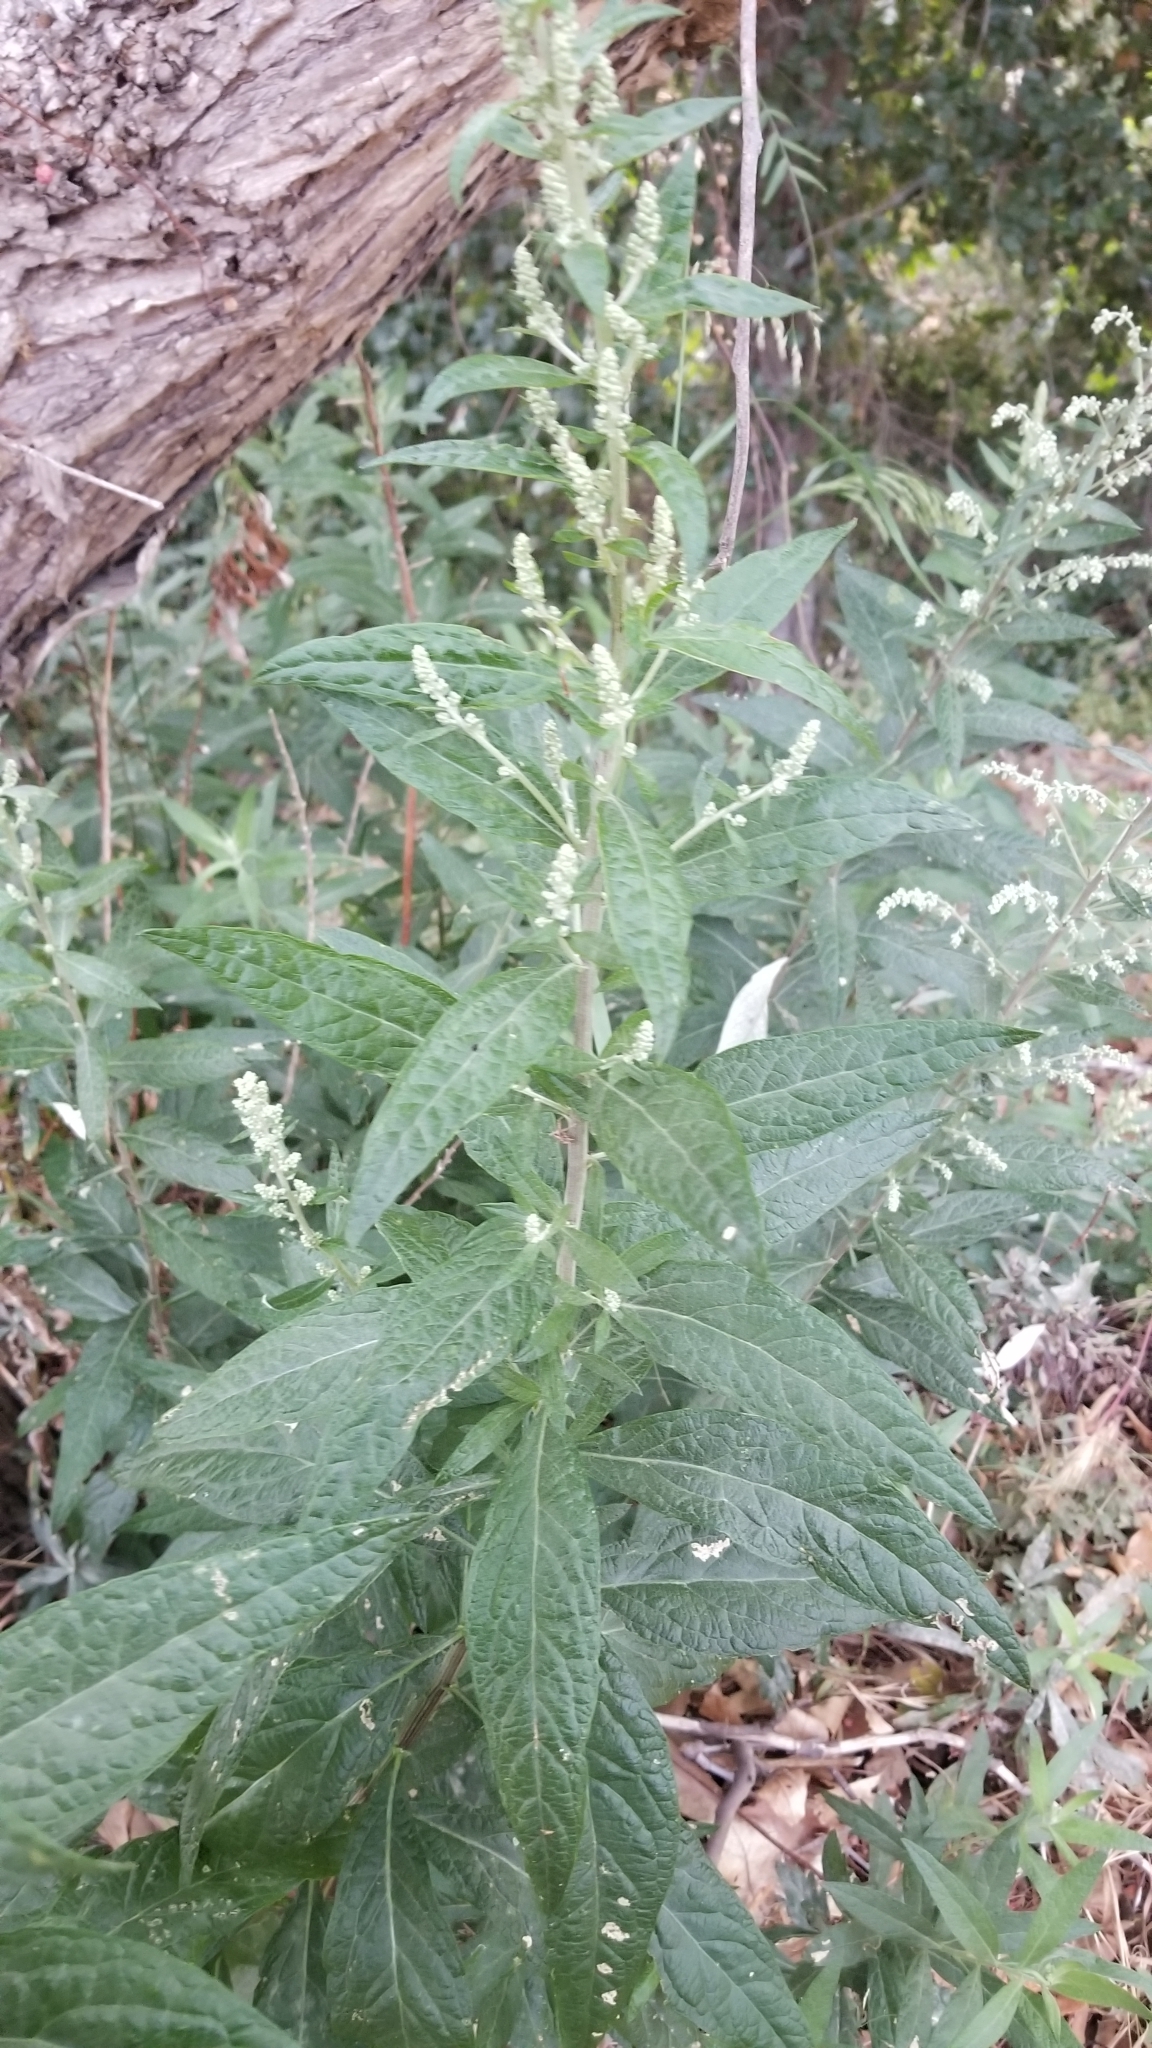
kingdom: Plantae
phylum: Tracheophyta
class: Magnoliopsida
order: Asterales
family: Asteraceae
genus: Artemisia
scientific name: Artemisia douglasiana
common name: Northwest mugwort
